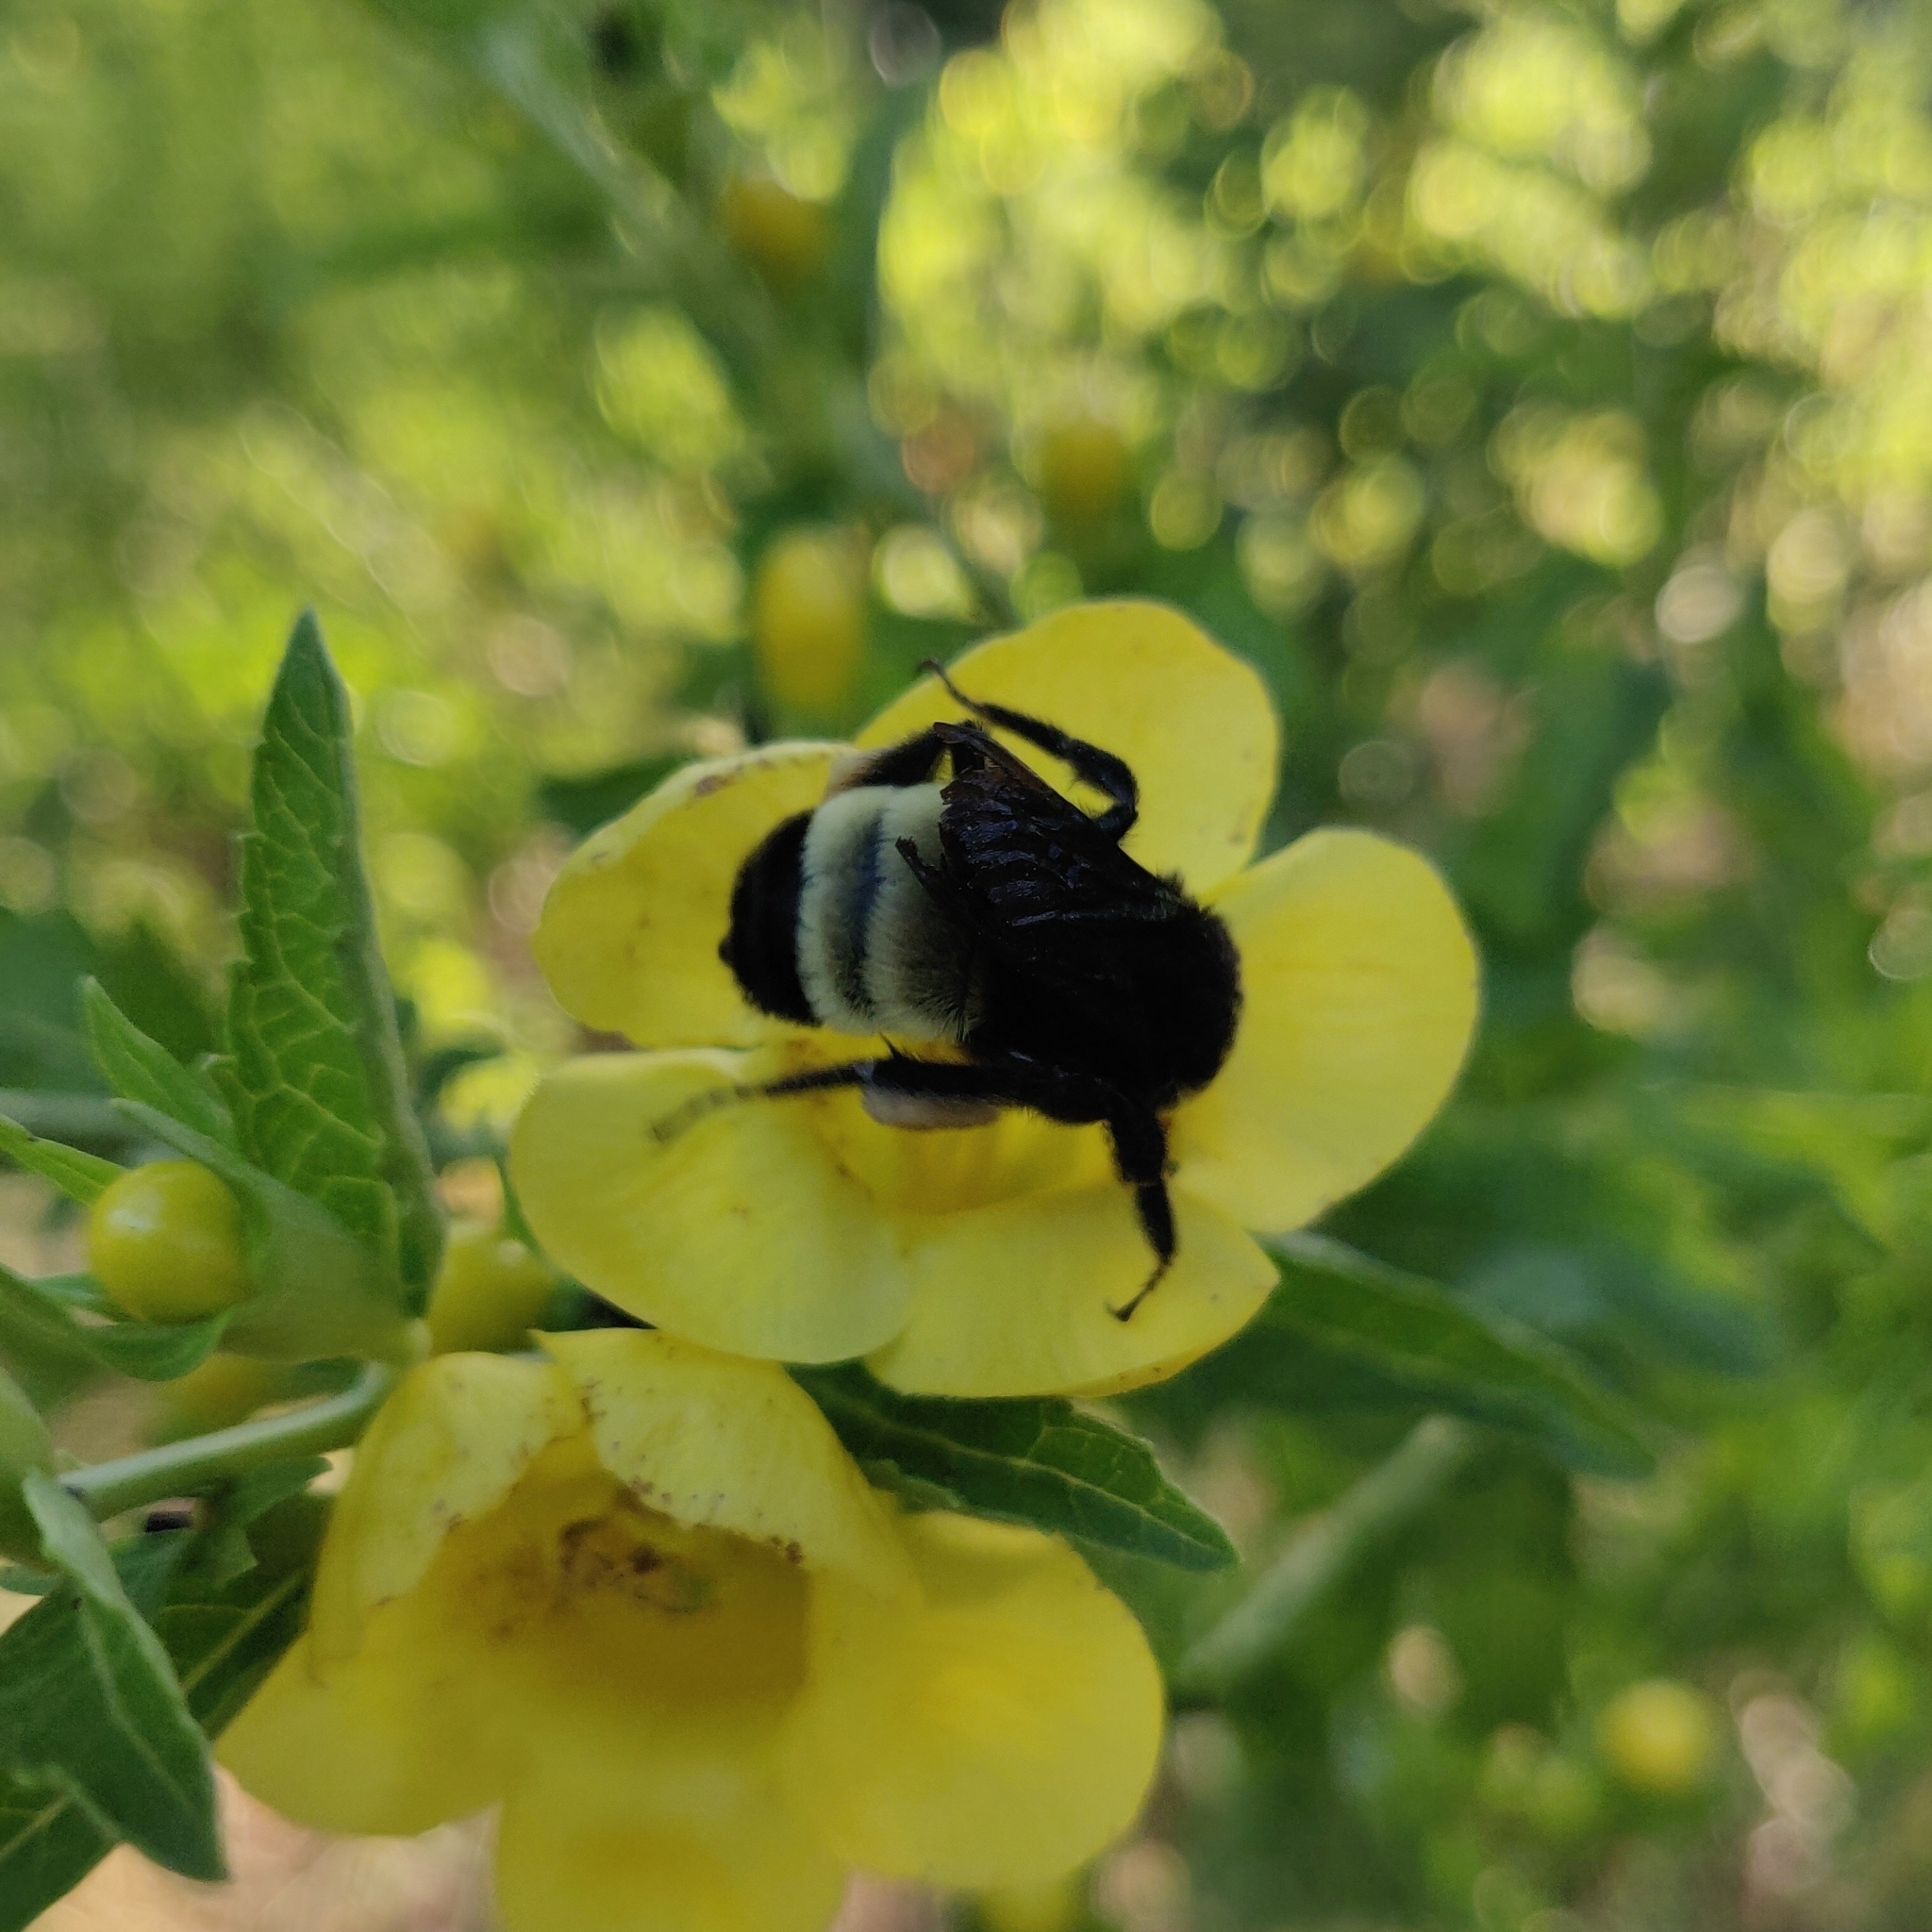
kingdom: Animalia
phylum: Arthropoda
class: Insecta
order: Hymenoptera
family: Apidae
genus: Bombus
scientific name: Bombus pensylvanicus
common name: Bumble bee
